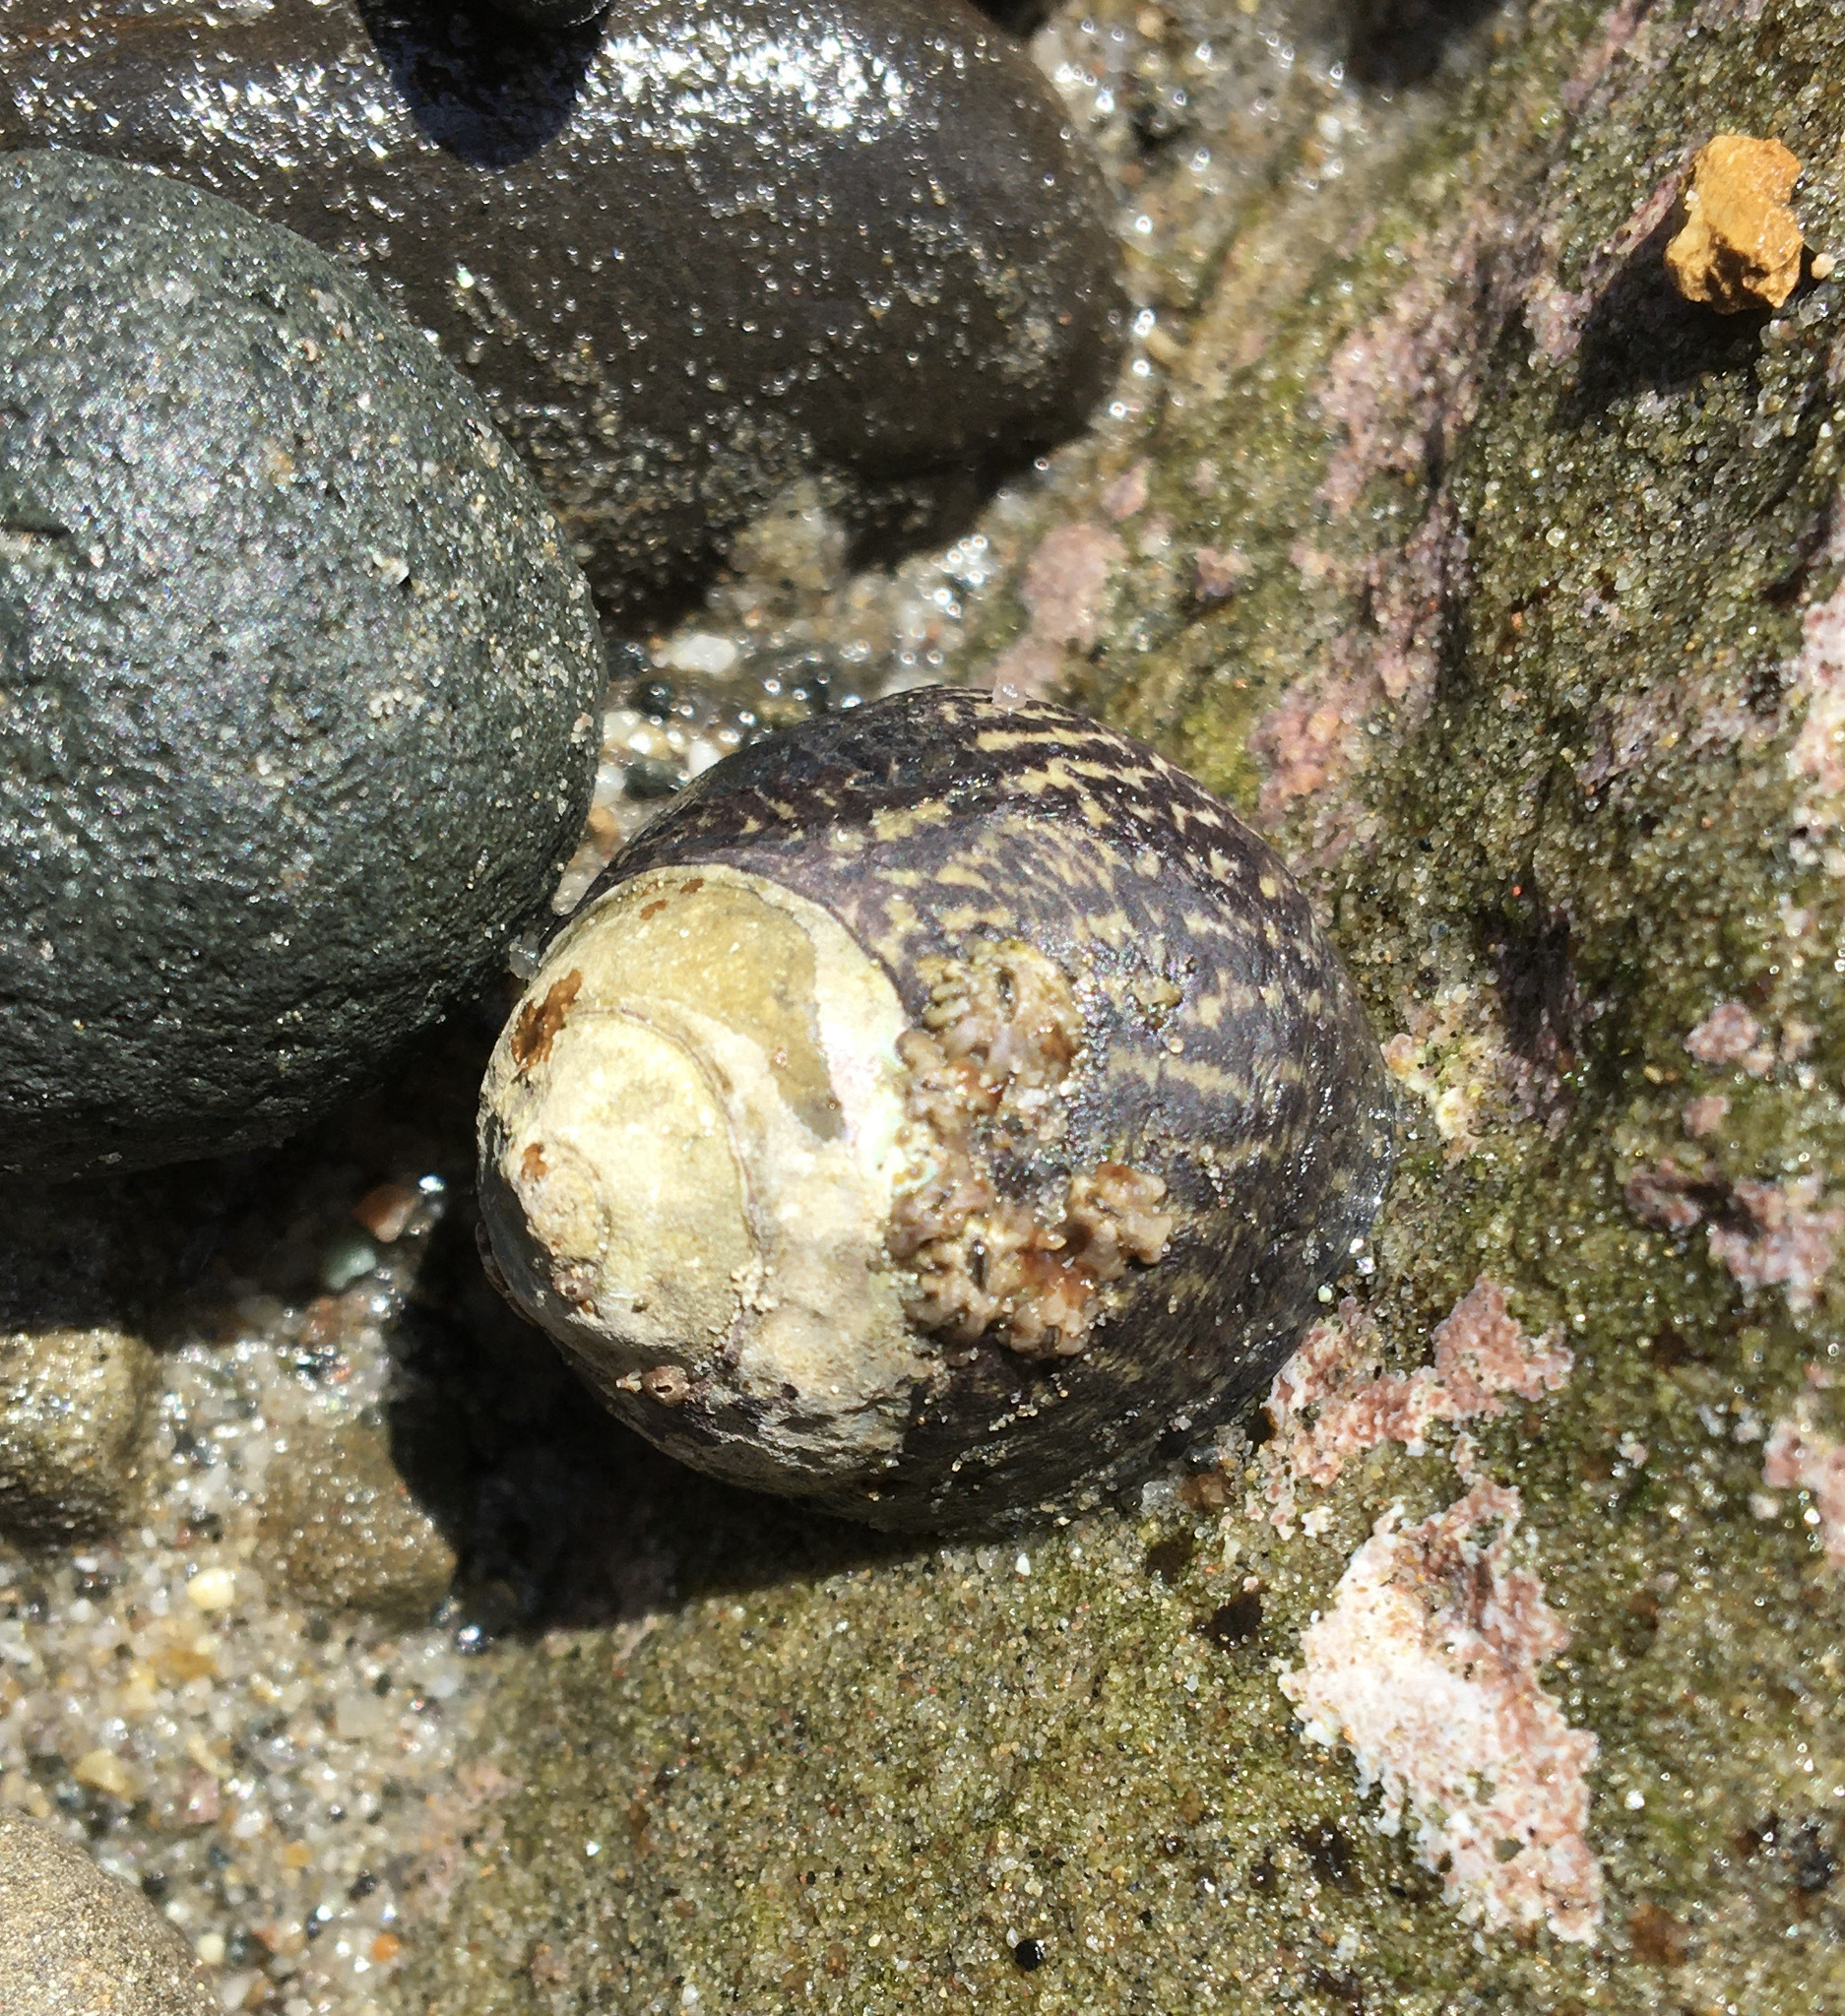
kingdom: Animalia
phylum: Mollusca
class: Gastropoda
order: Trochida
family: Tegulidae
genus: Tegula
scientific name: Tegula gallina
